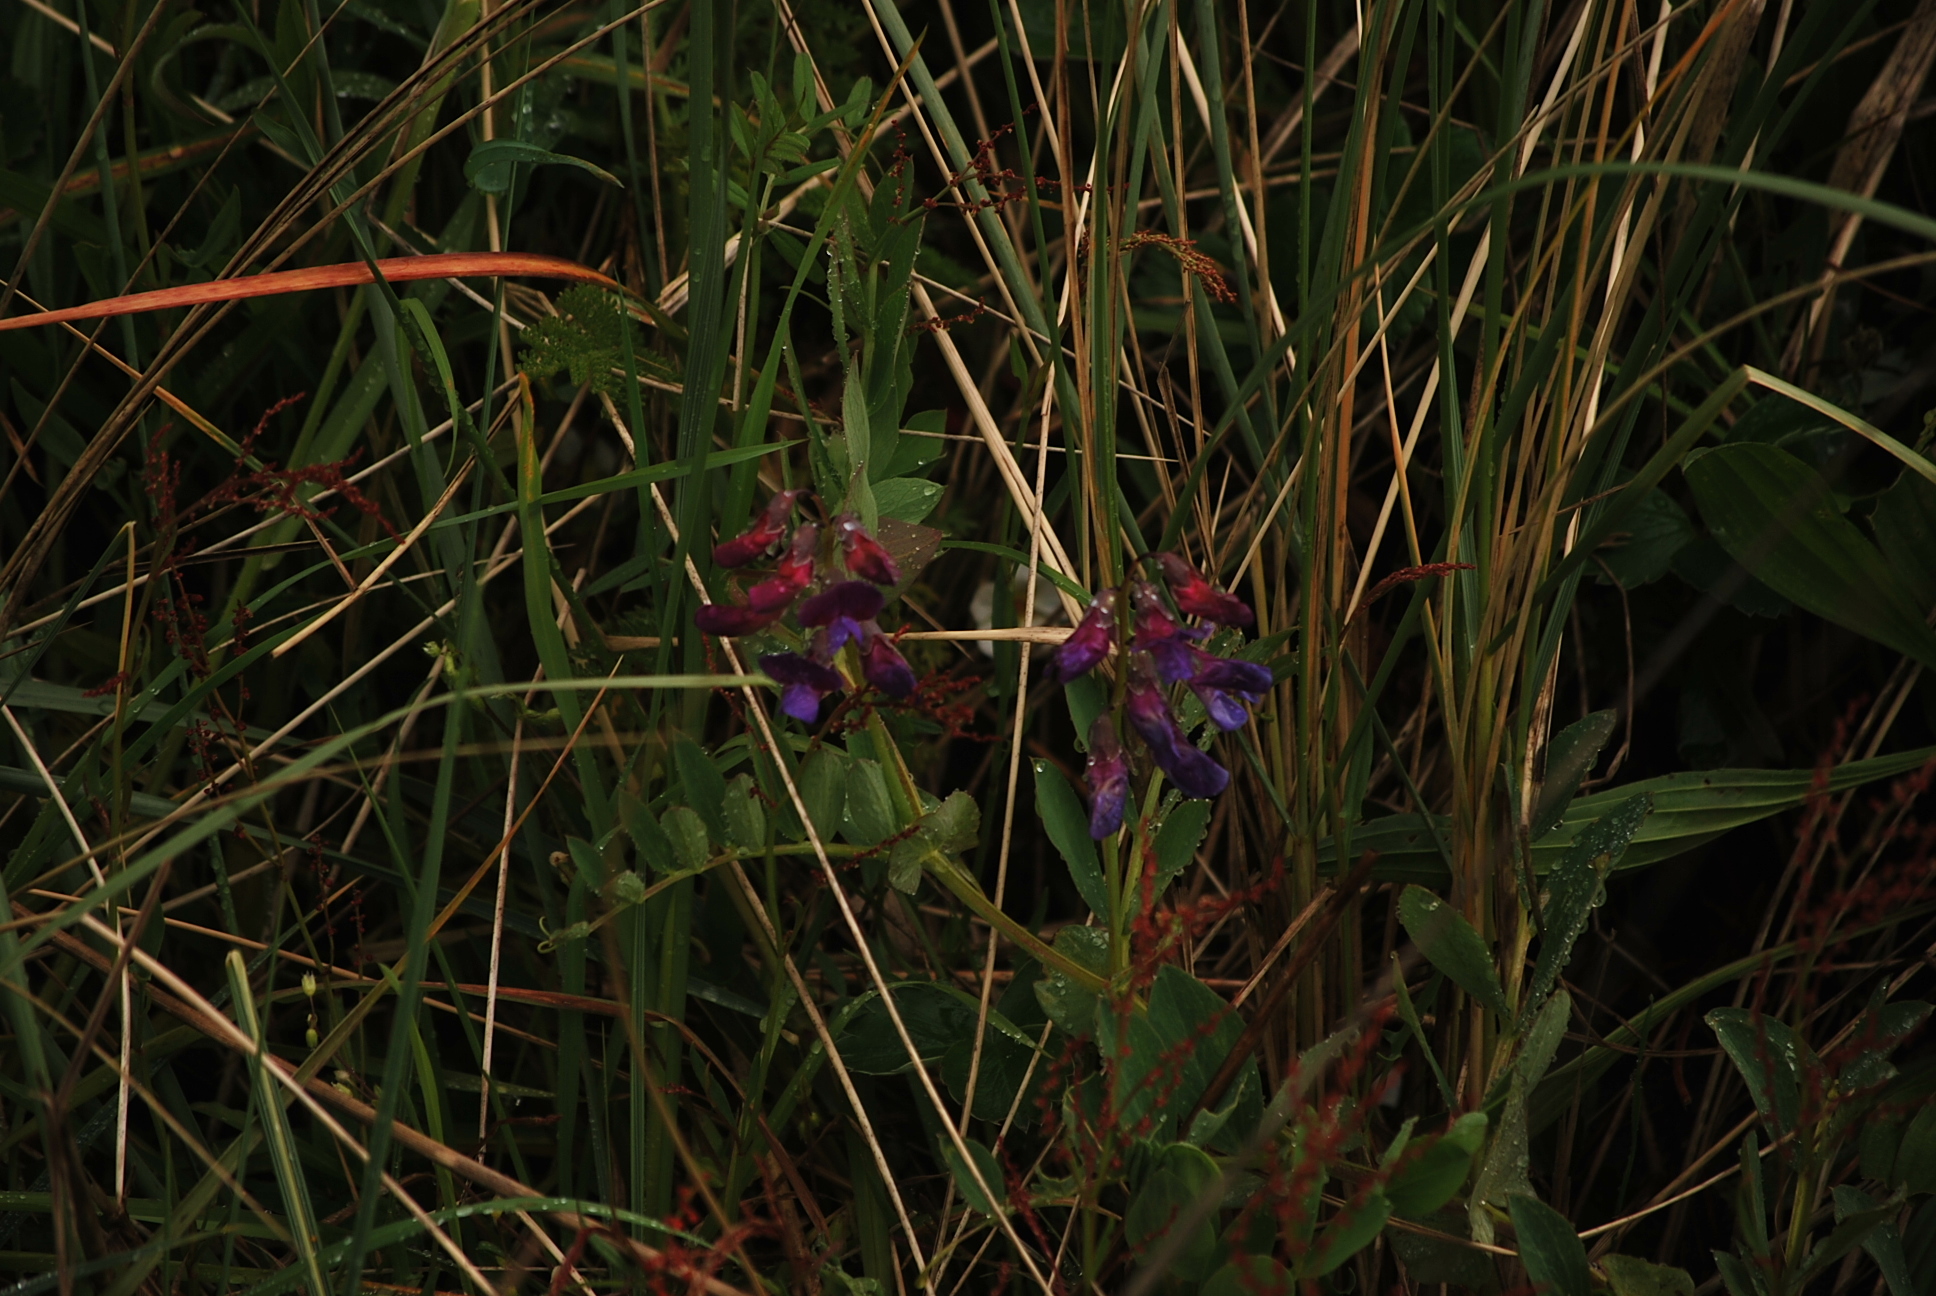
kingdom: Plantae
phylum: Tracheophyta
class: Magnoliopsida
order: Fabales
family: Fabaceae
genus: Lathyrus
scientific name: Lathyrus japonicus
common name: Sea pea
